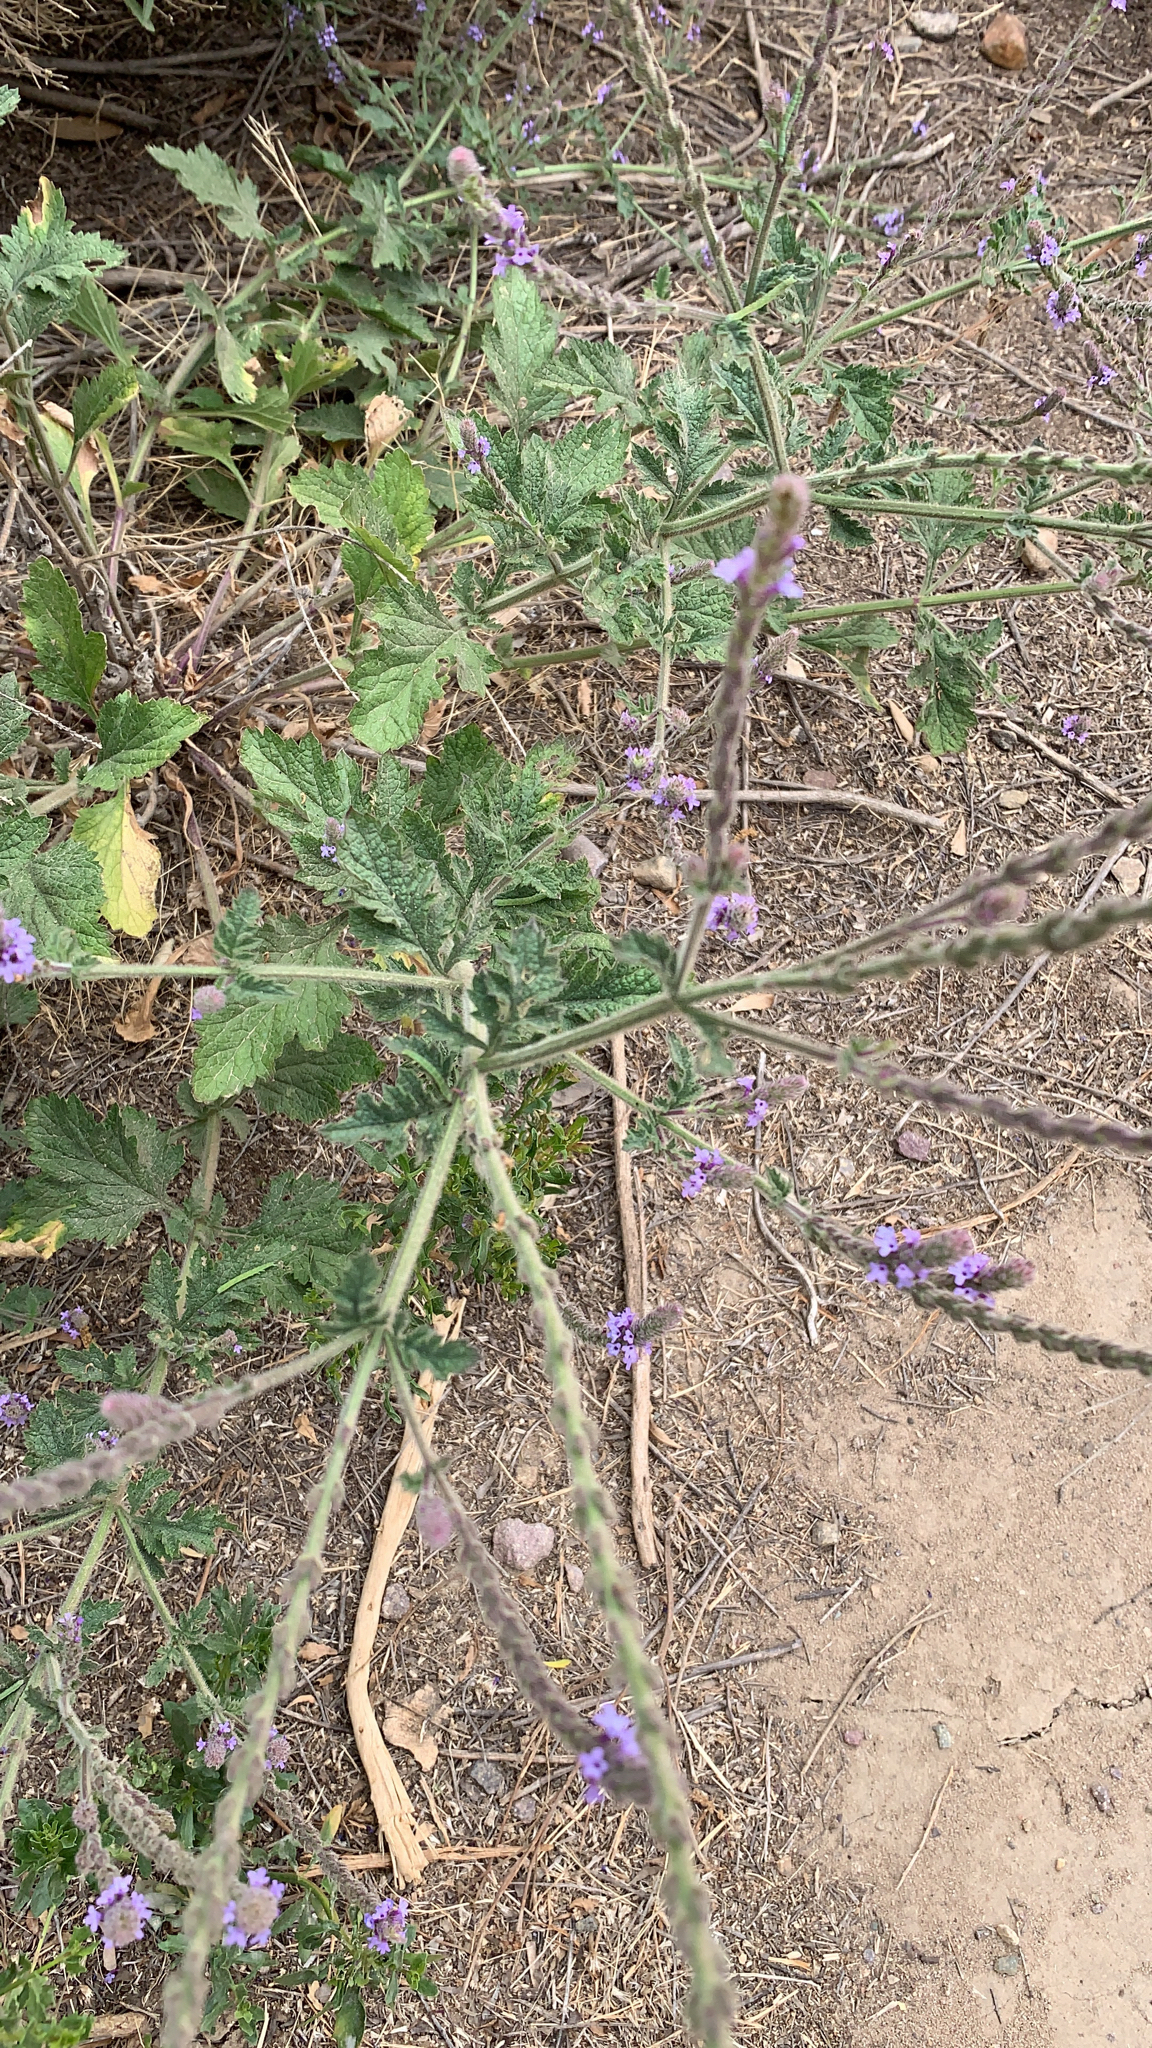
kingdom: Plantae
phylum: Tracheophyta
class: Magnoliopsida
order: Lamiales
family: Verbenaceae
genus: Verbena
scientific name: Verbena lasiostachys
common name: Vervain
